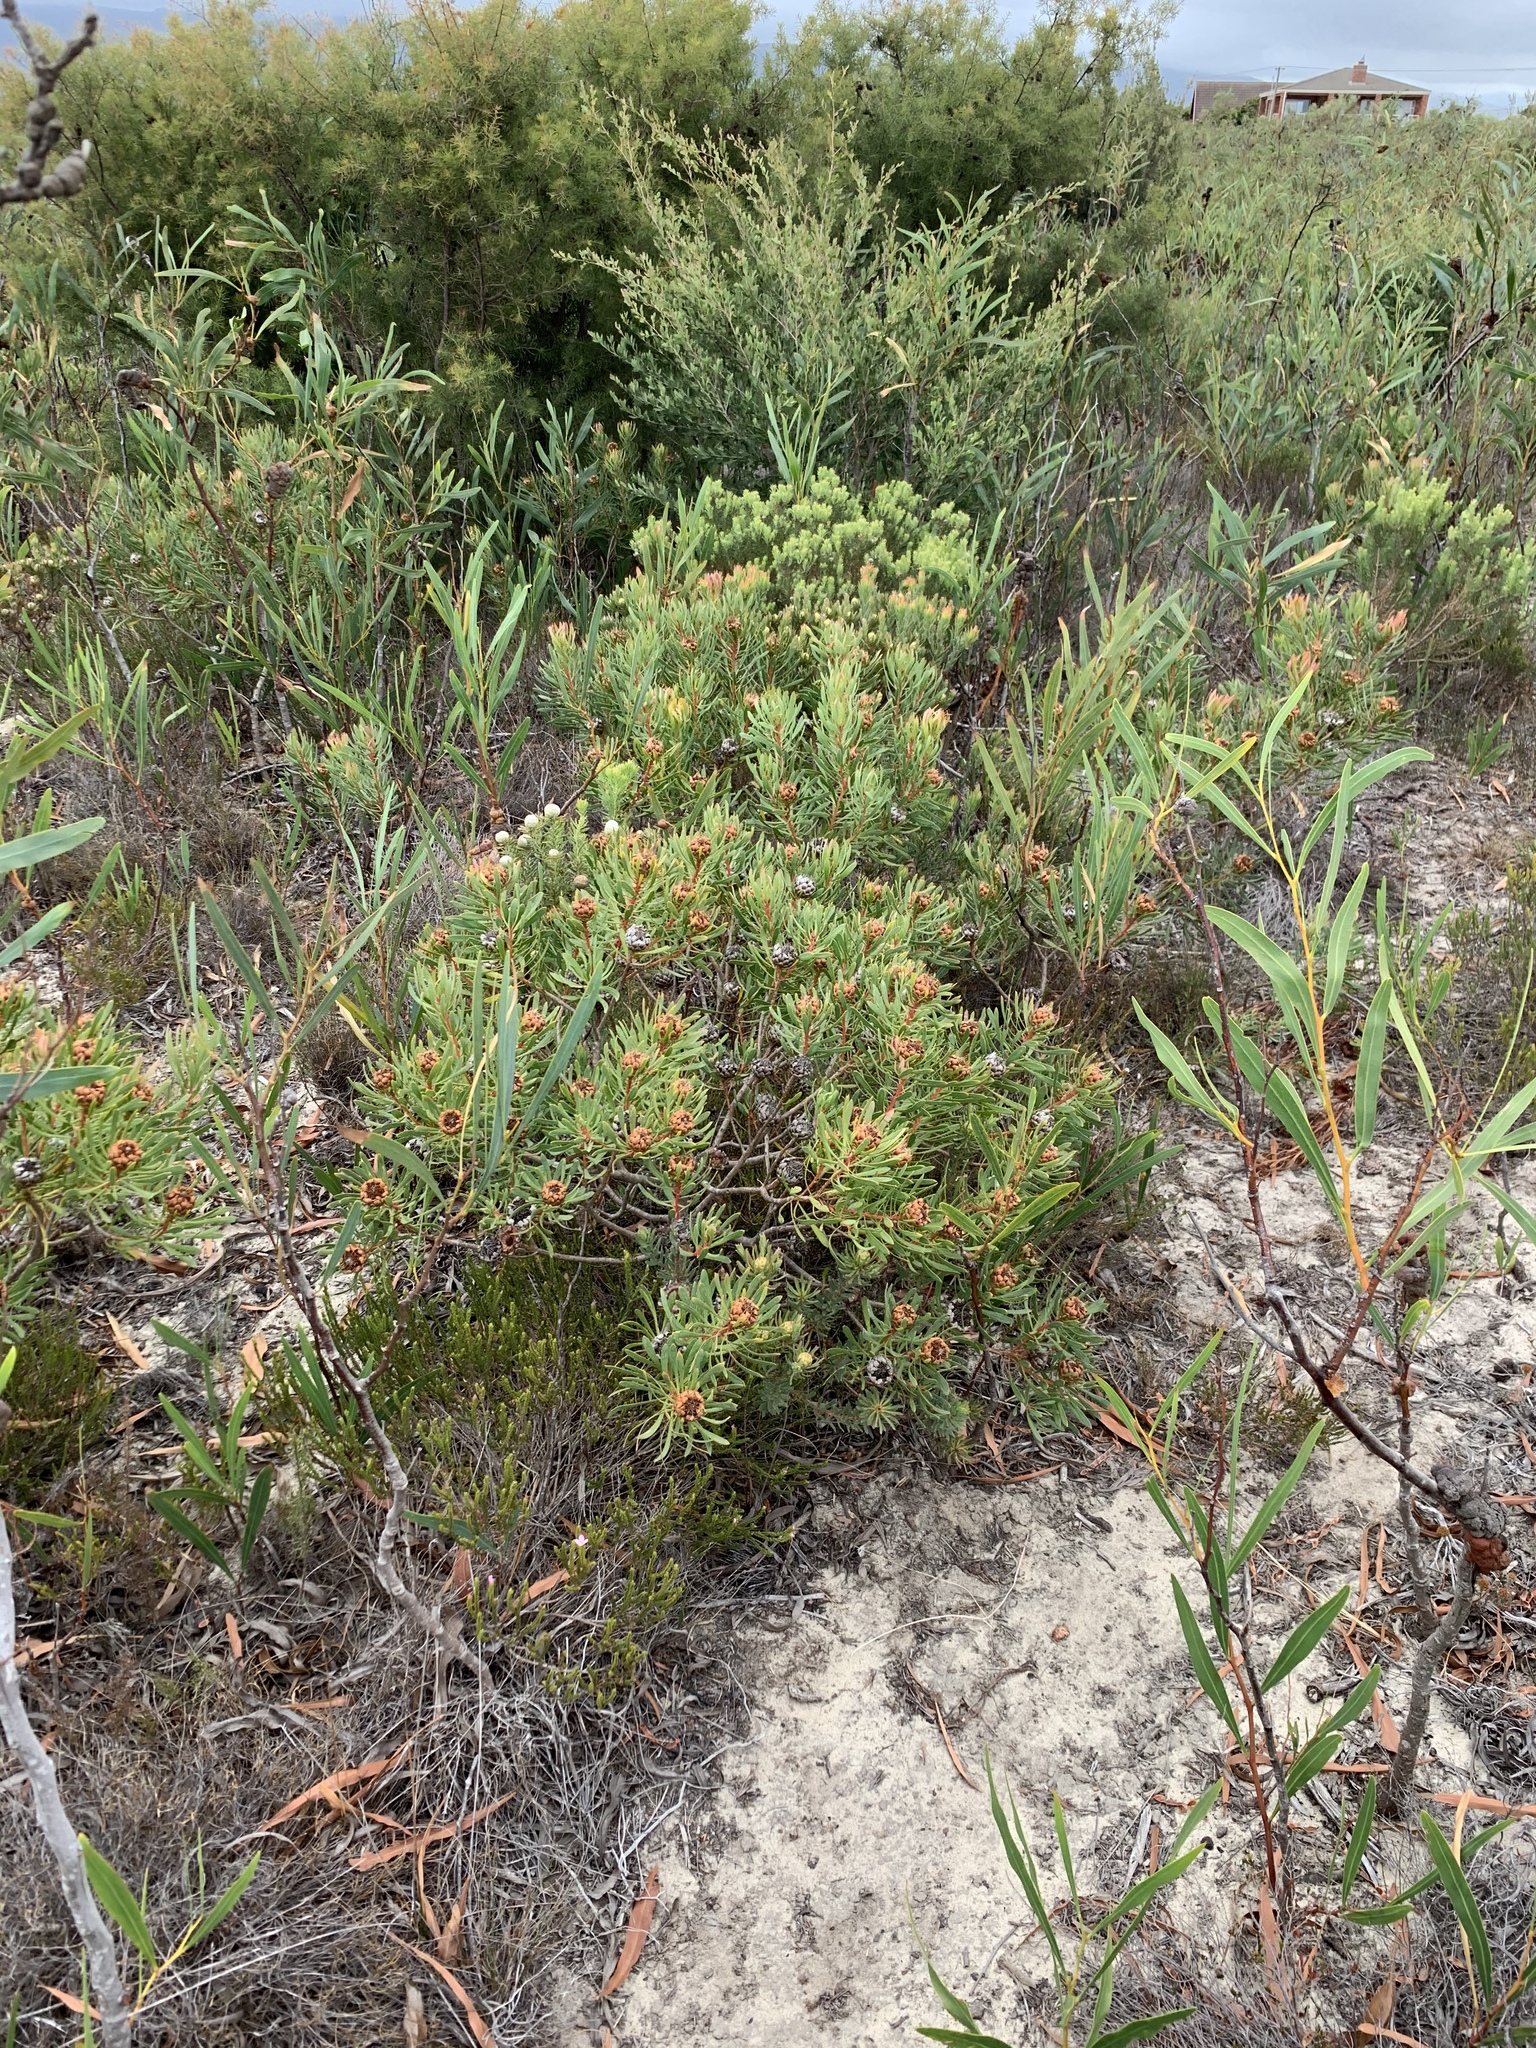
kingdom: Plantae
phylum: Tracheophyta
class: Magnoliopsida
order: Proteales
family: Proteaceae
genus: Protea
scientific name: Protea scolymocephala
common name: Thistle sugarbush
